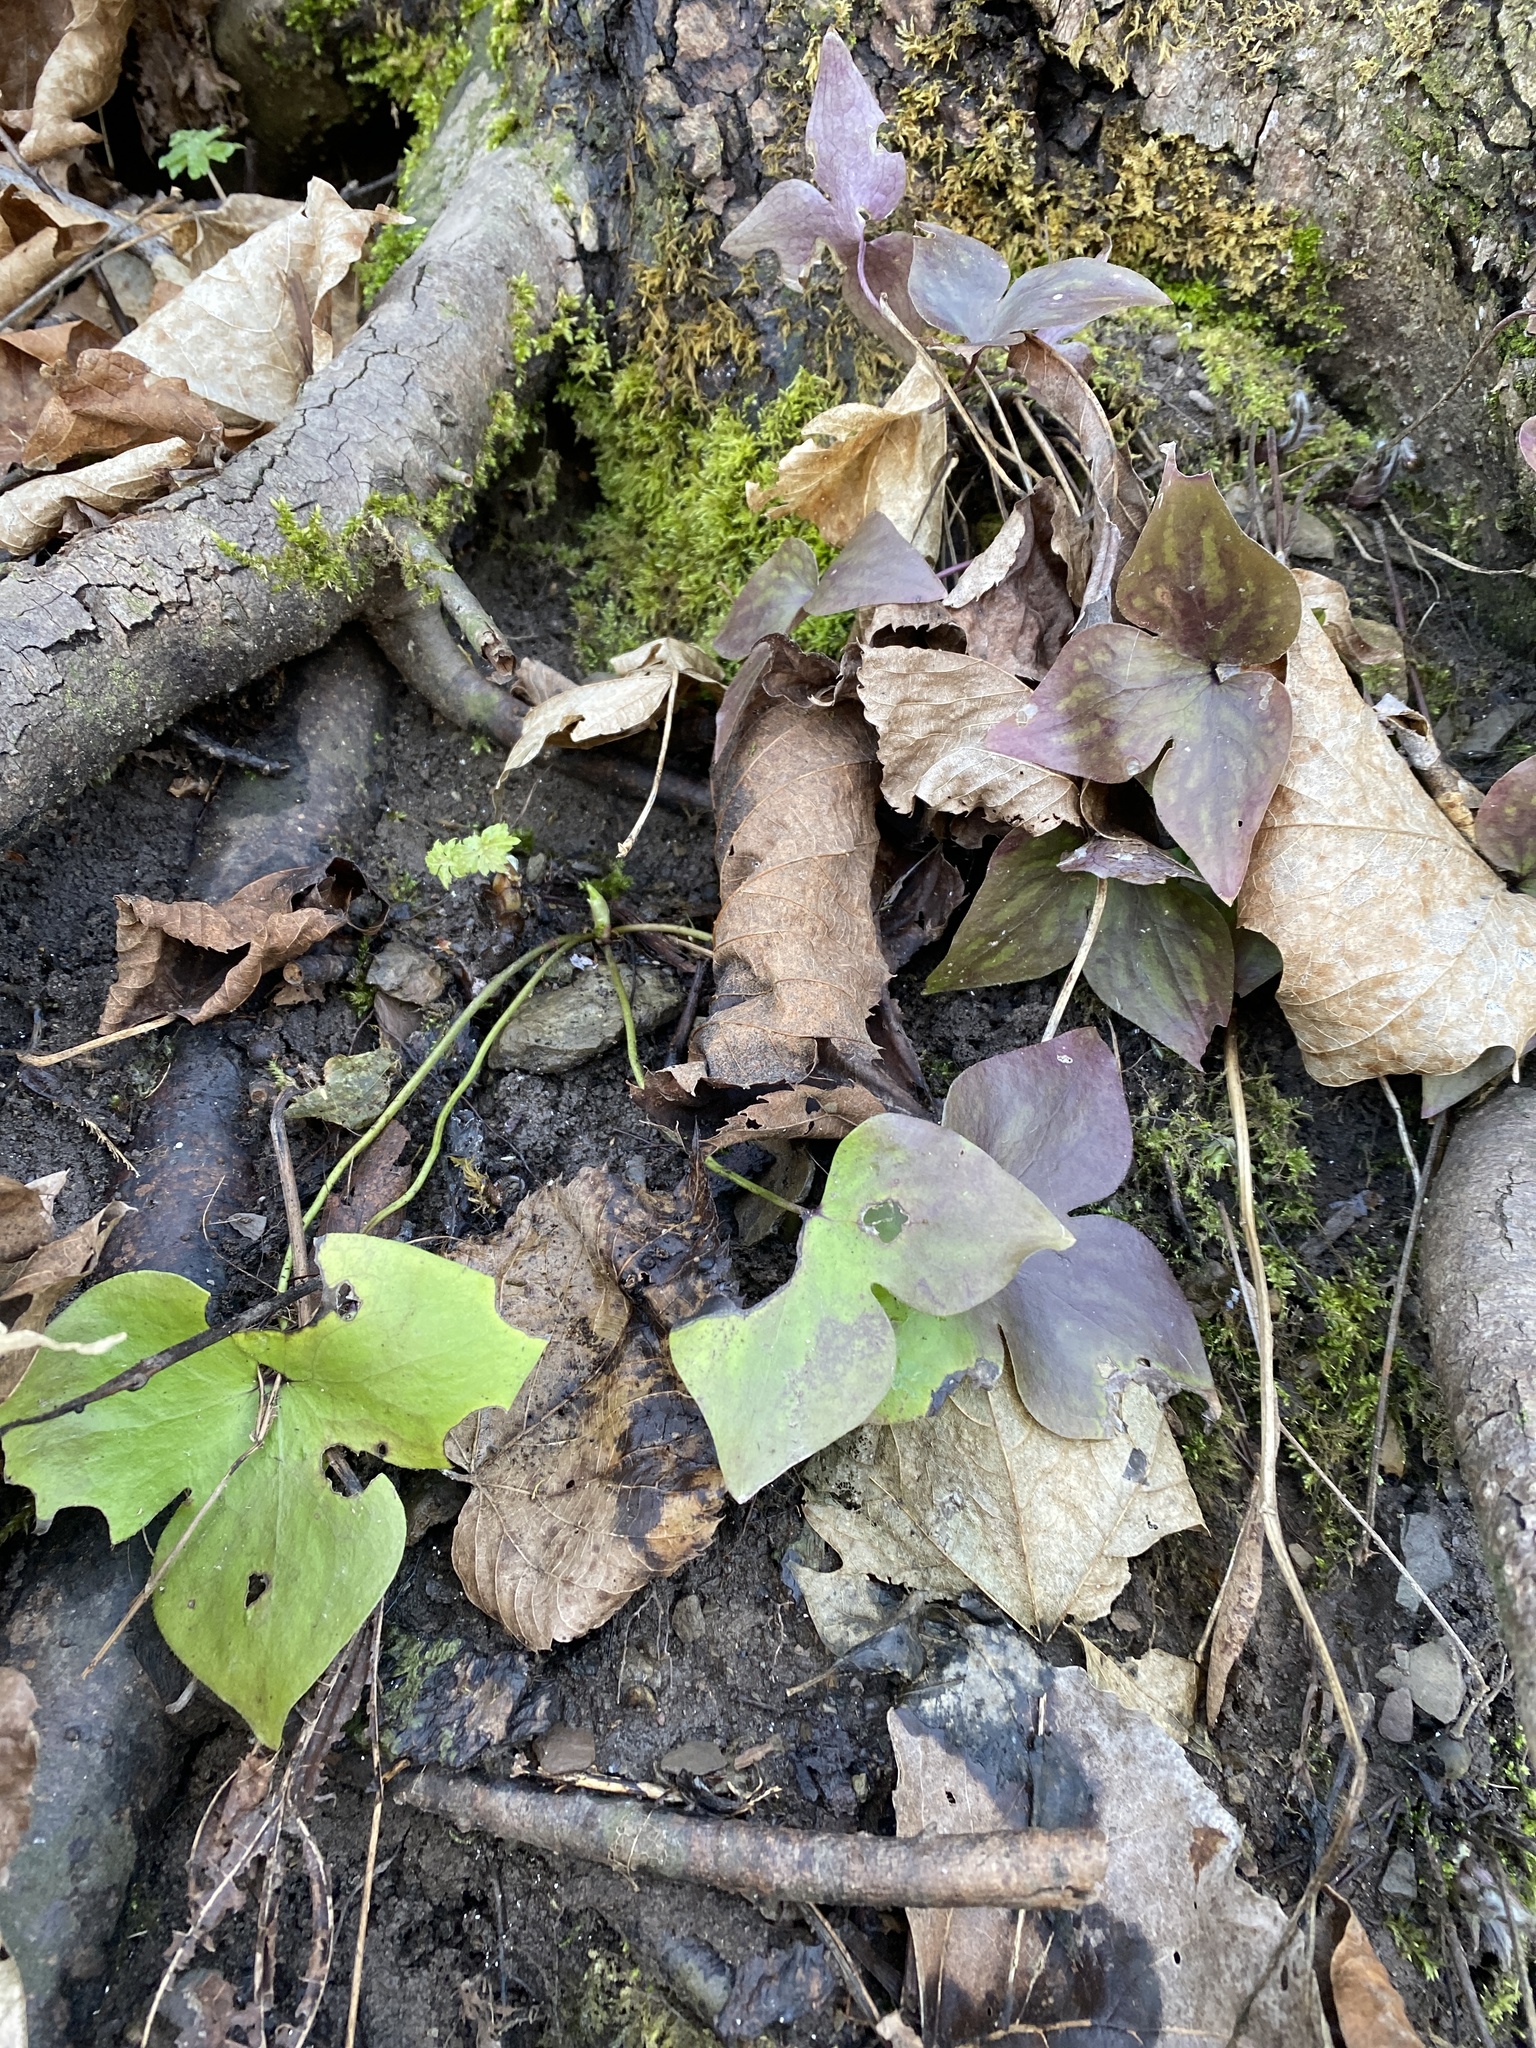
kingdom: Plantae
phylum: Tracheophyta
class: Magnoliopsida
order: Ranunculales
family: Ranunculaceae
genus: Hepatica
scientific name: Hepatica acutiloba
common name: Sharp-lobed hepatica
